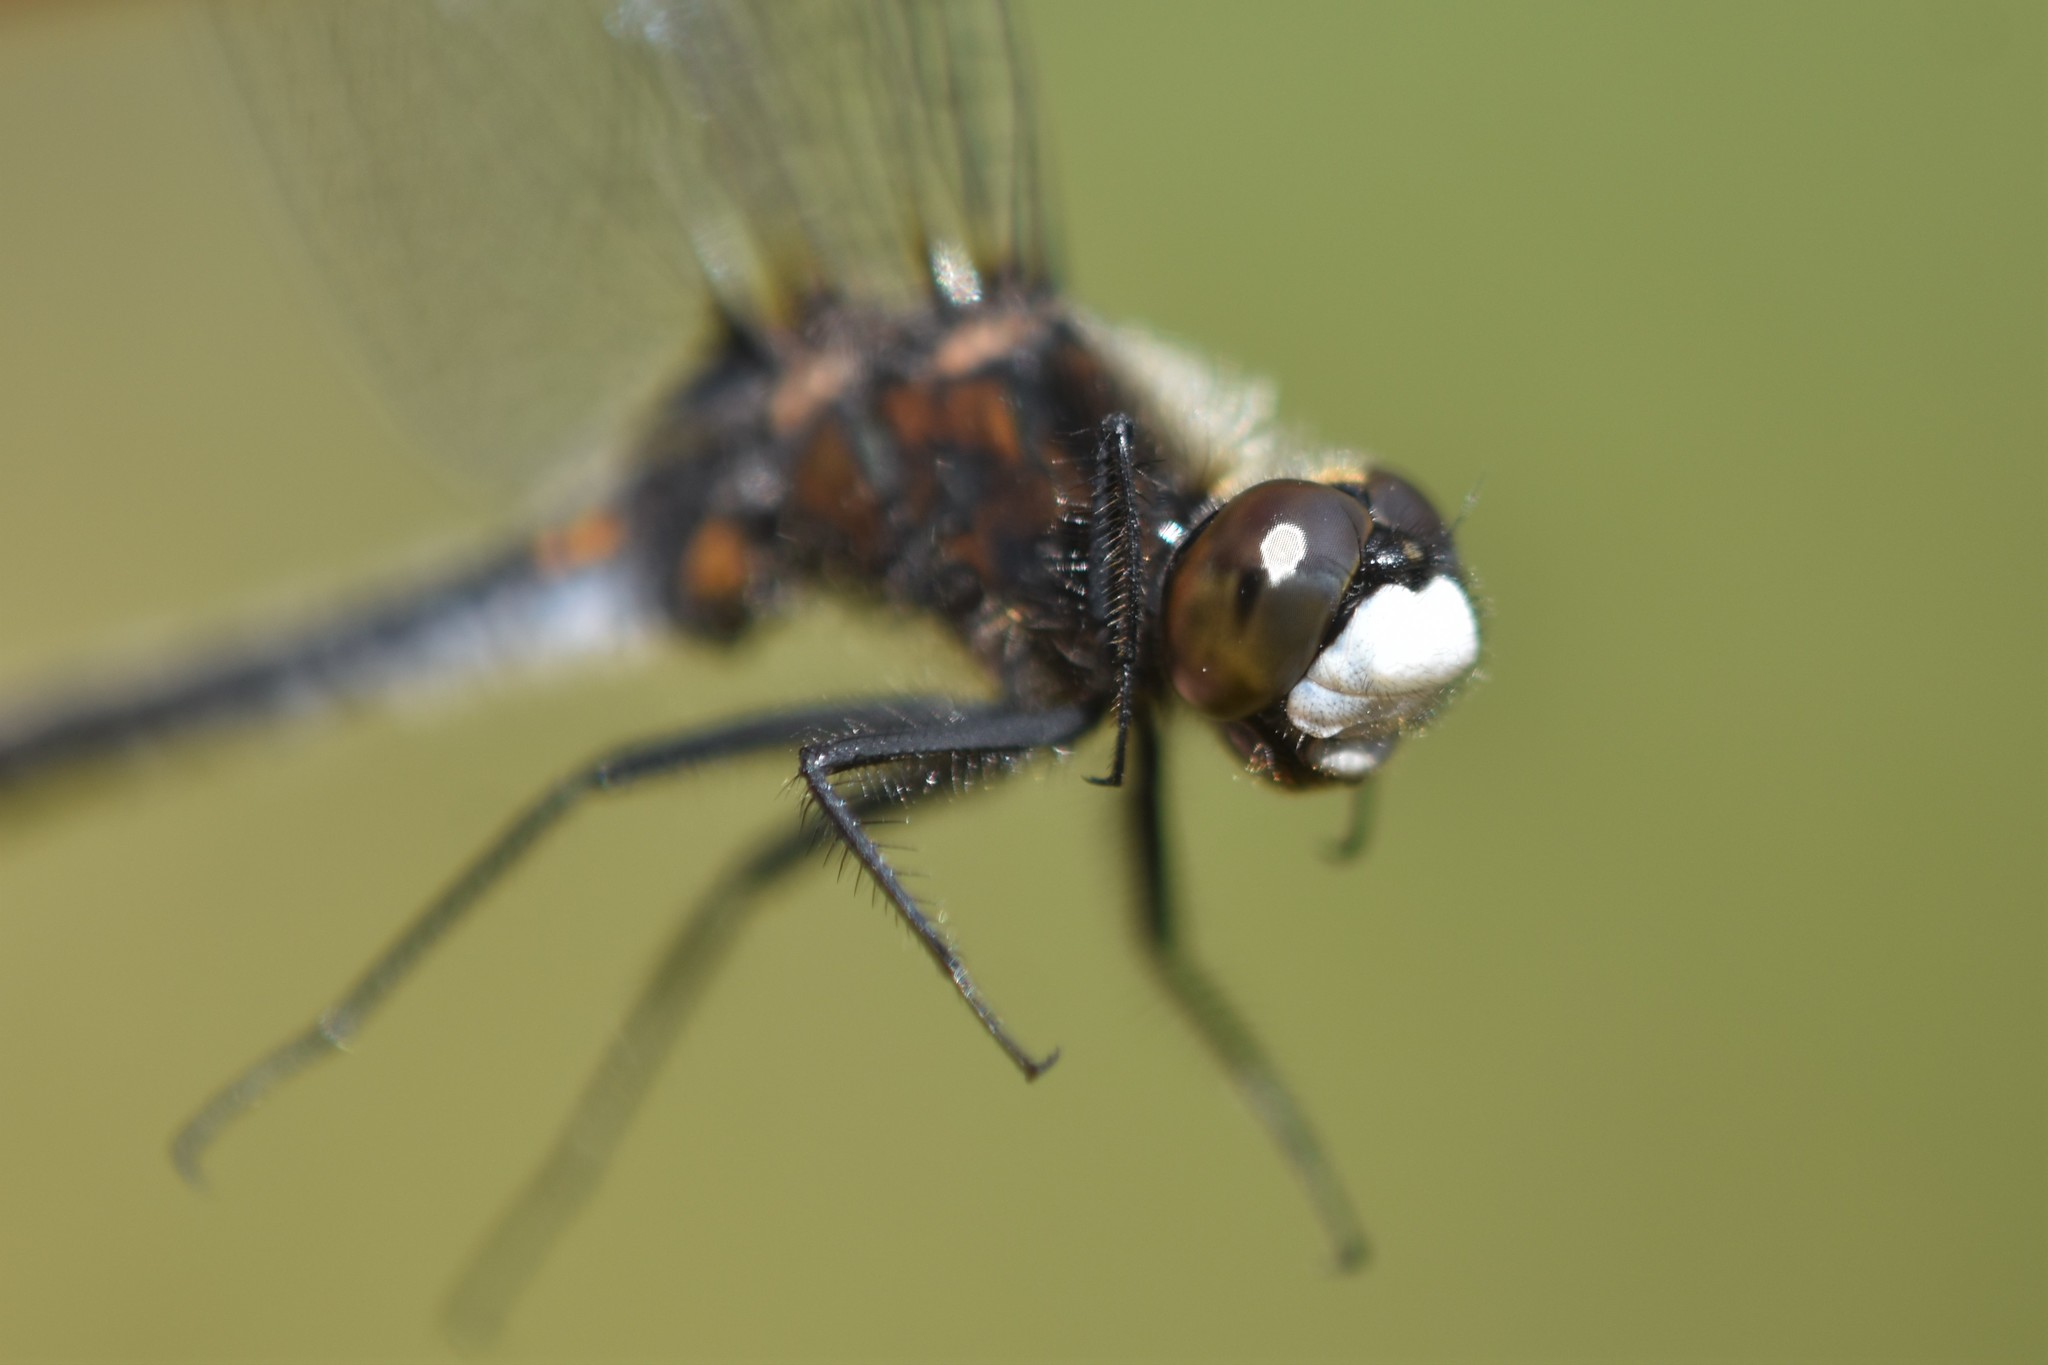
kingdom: Animalia
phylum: Arthropoda
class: Insecta
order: Odonata
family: Libellulidae
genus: Leucorrhinia
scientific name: Leucorrhinia intacta
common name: Dot-tailed whiteface
